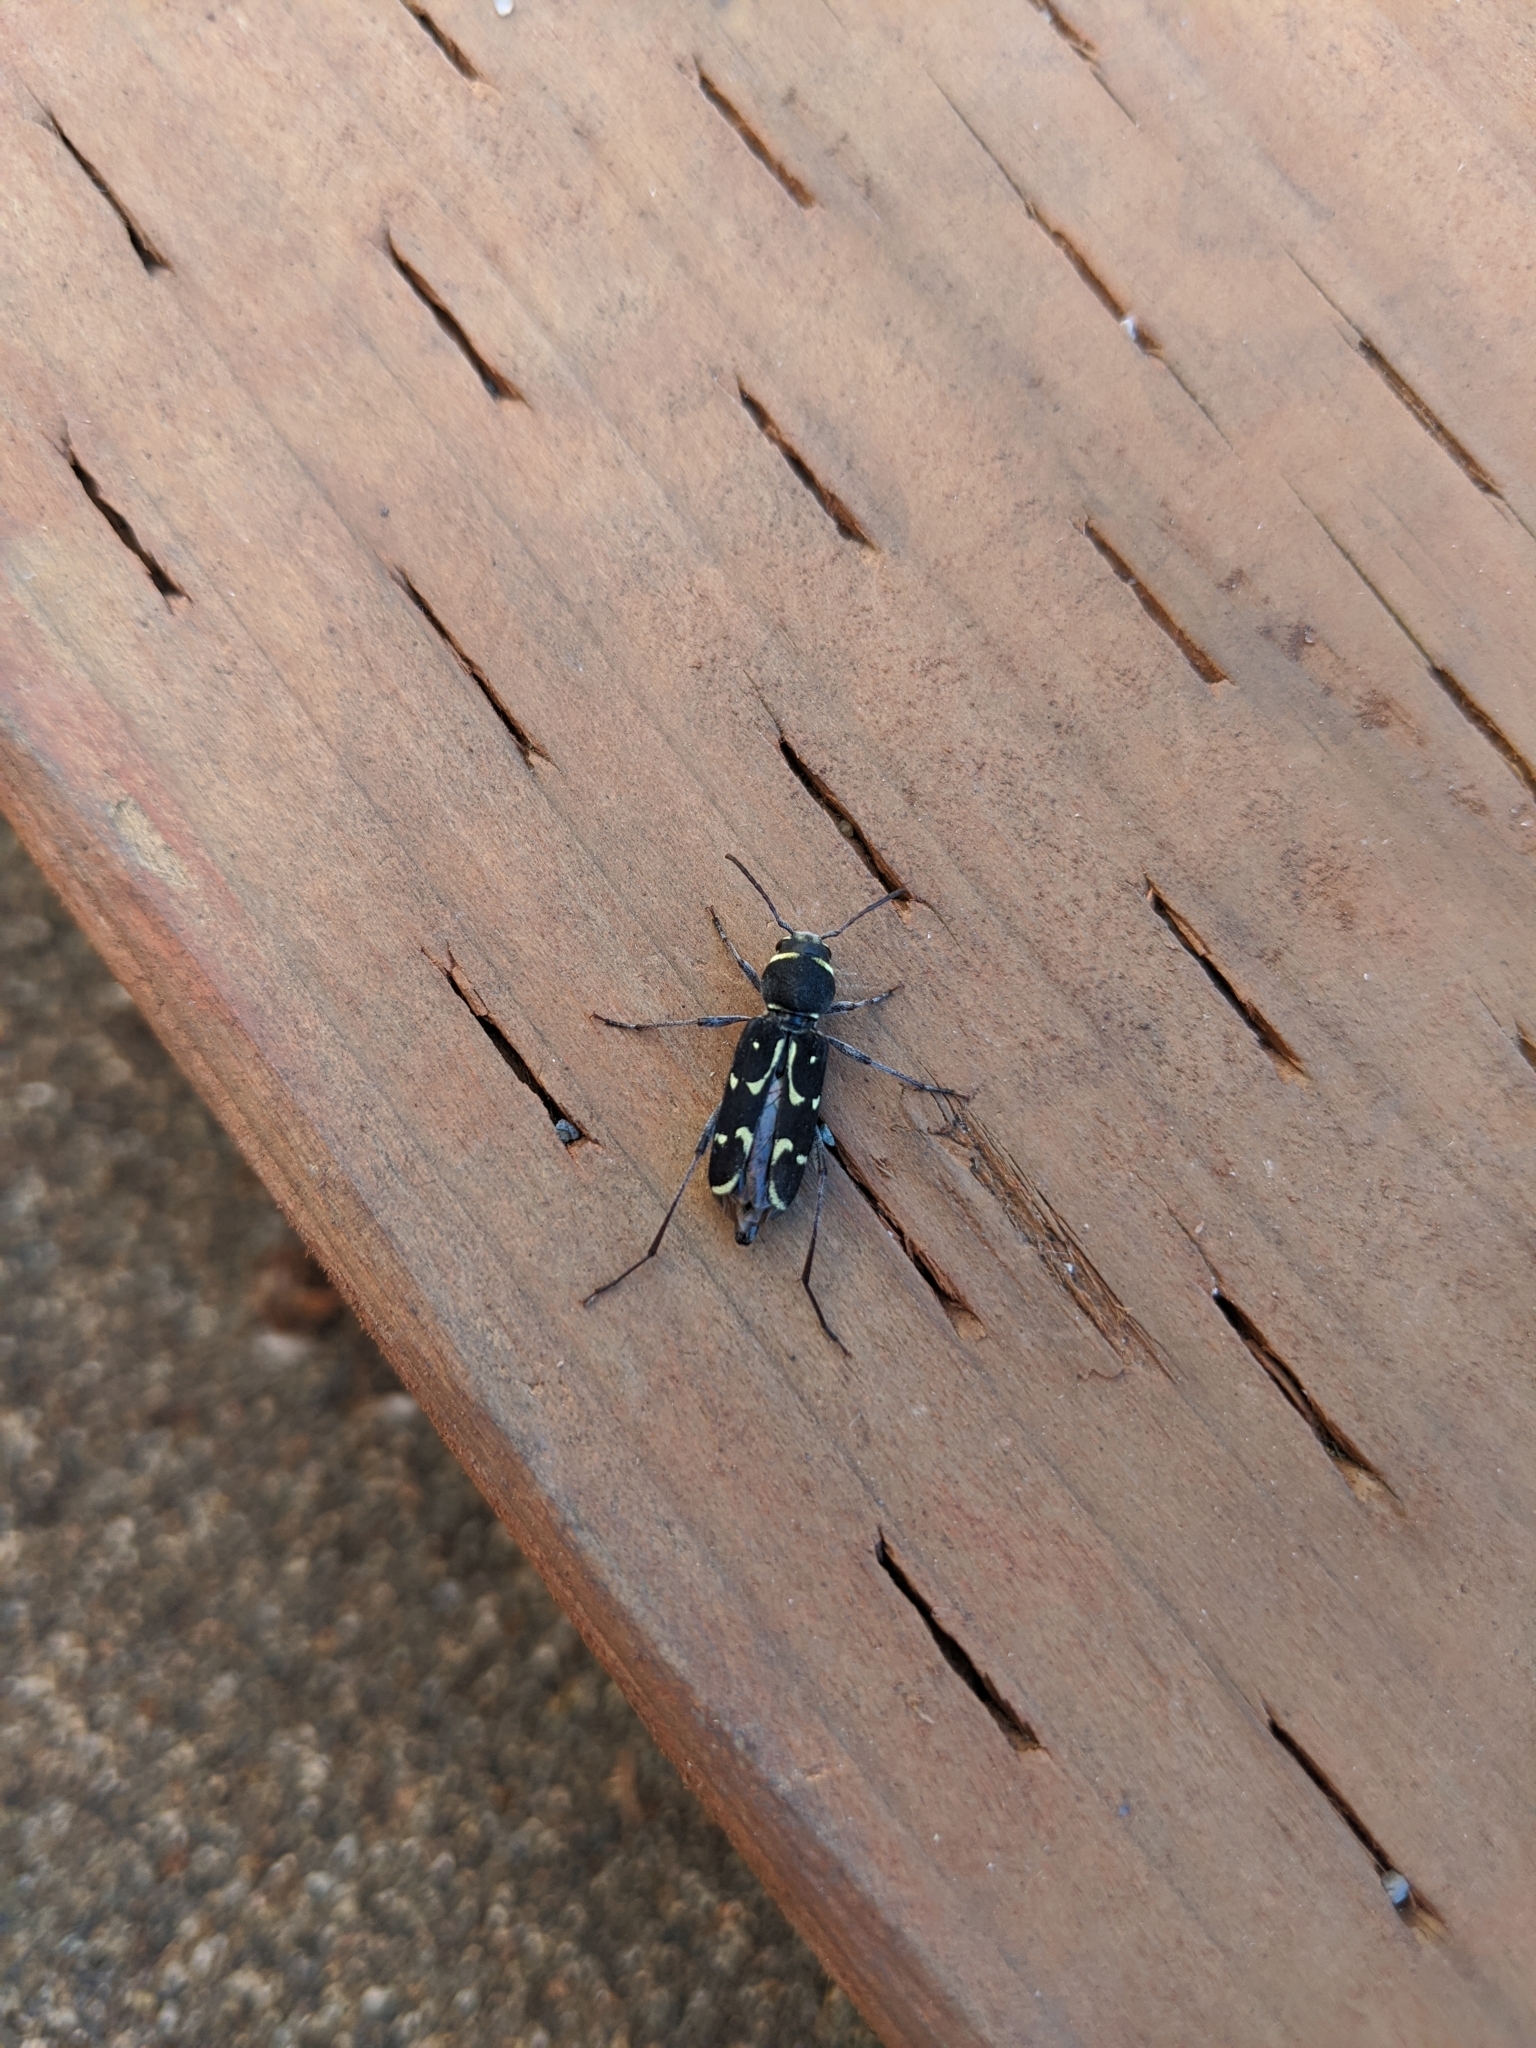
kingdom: Animalia
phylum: Arthropoda
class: Insecta
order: Coleoptera
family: Cerambycidae
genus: Xylotrechus
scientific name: Xylotrechus undulatus
